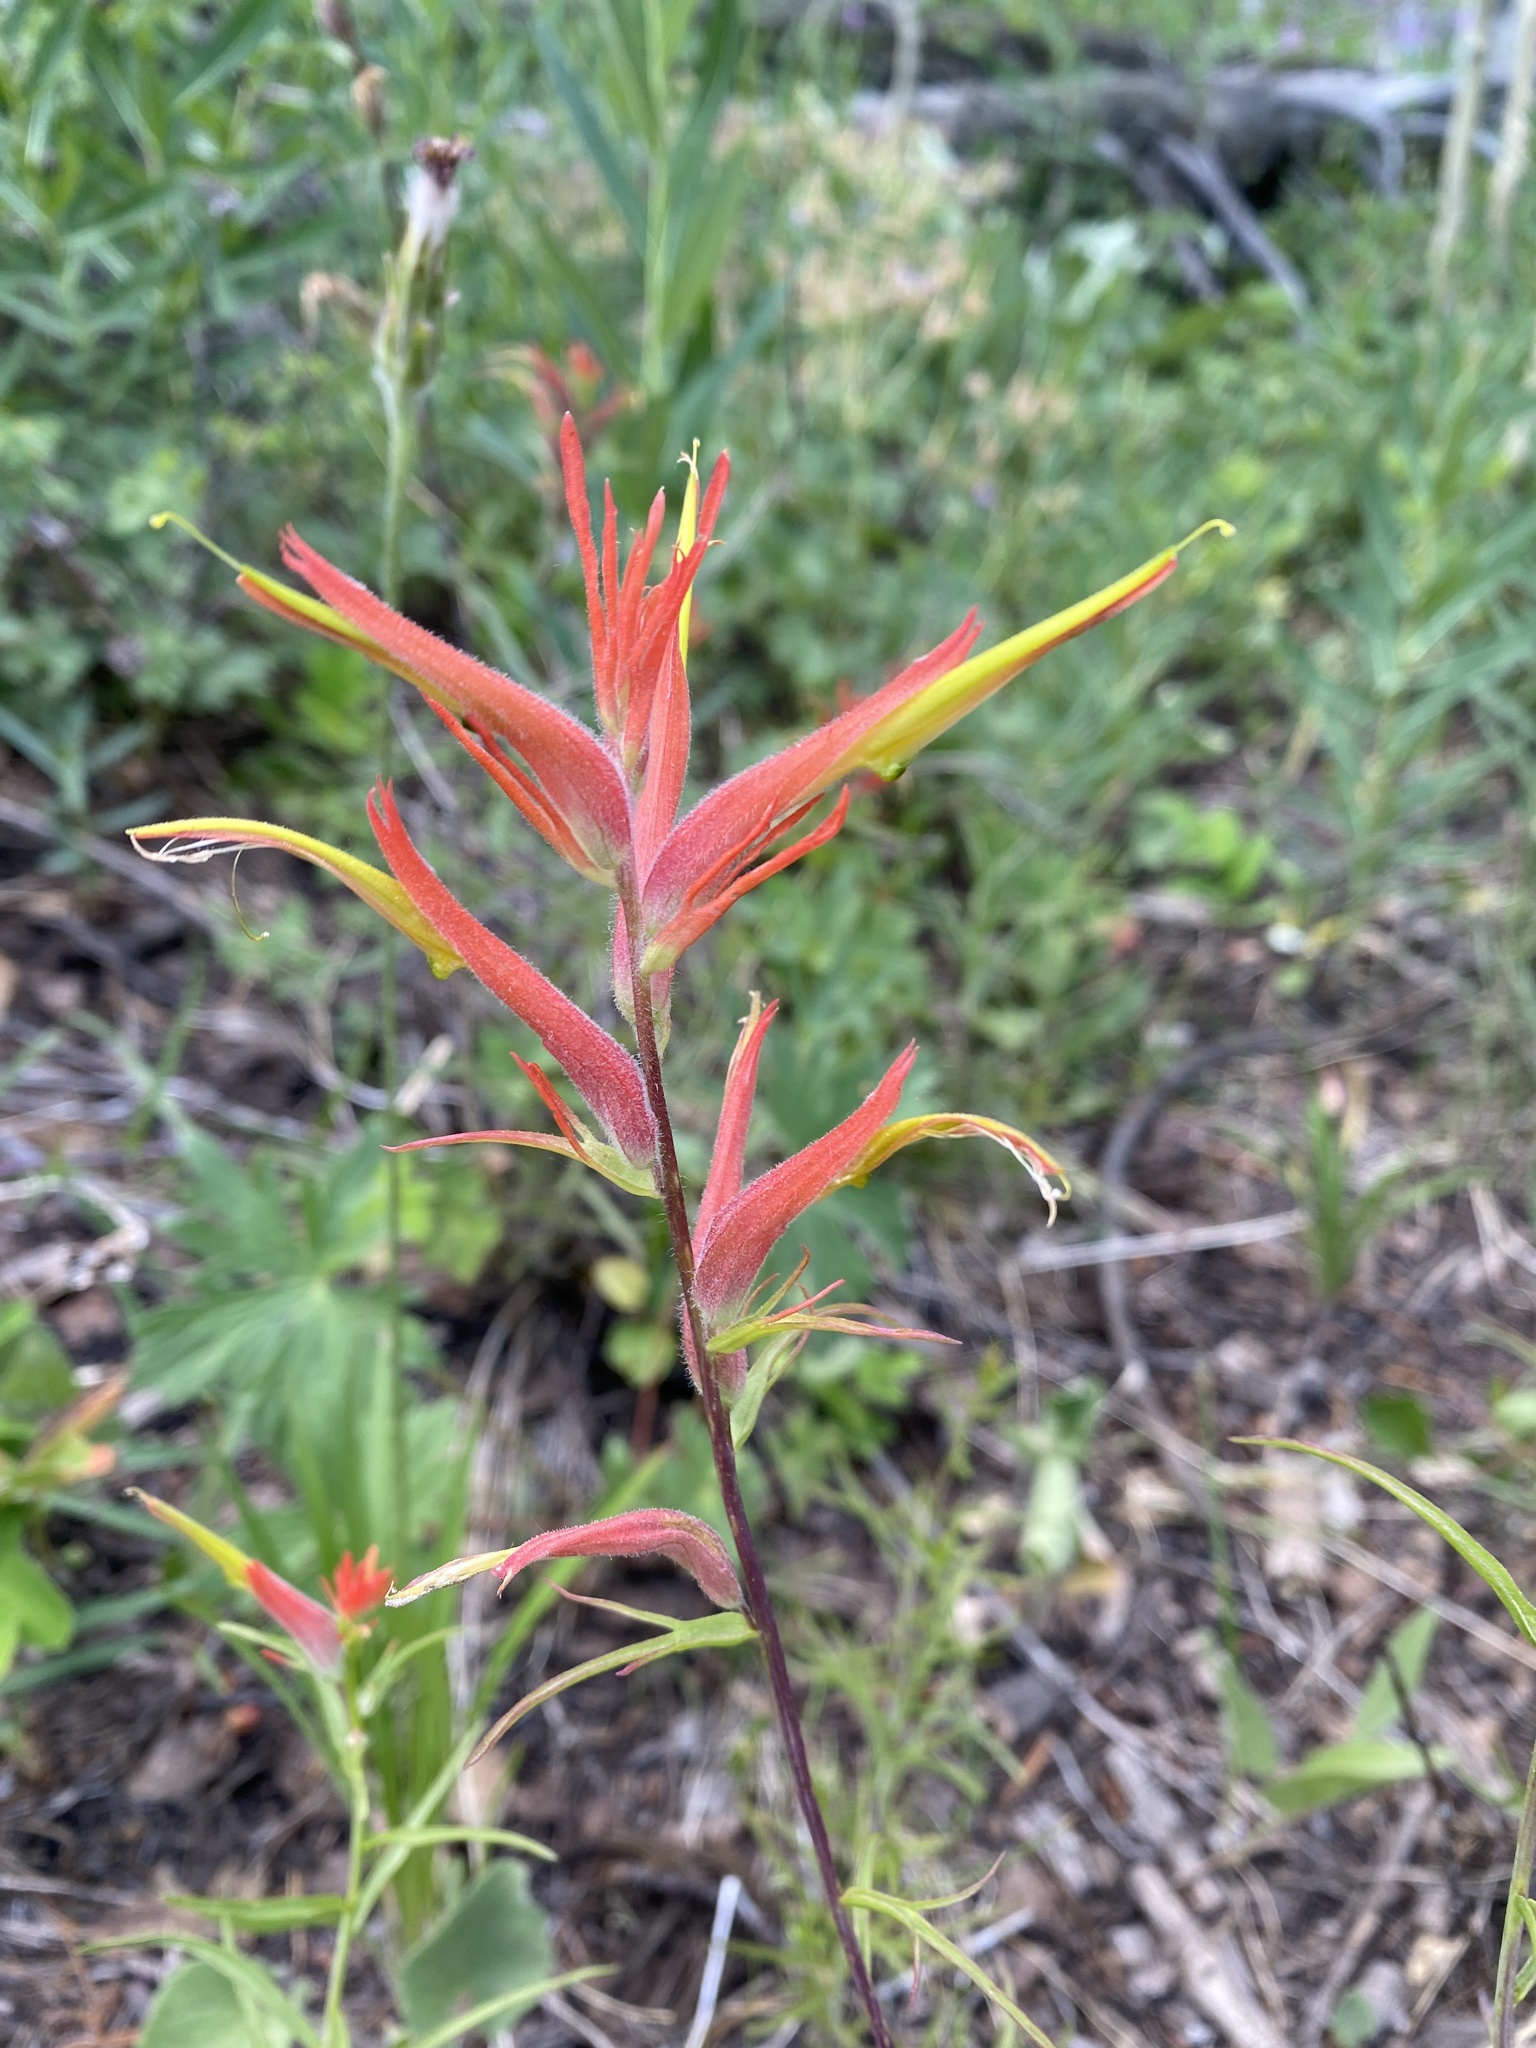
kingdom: Plantae
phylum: Tracheophyta
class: Magnoliopsida
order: Lamiales
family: Orobanchaceae
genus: Castilleja
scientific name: Castilleja linariifolia
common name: Wyoming paintbrush
